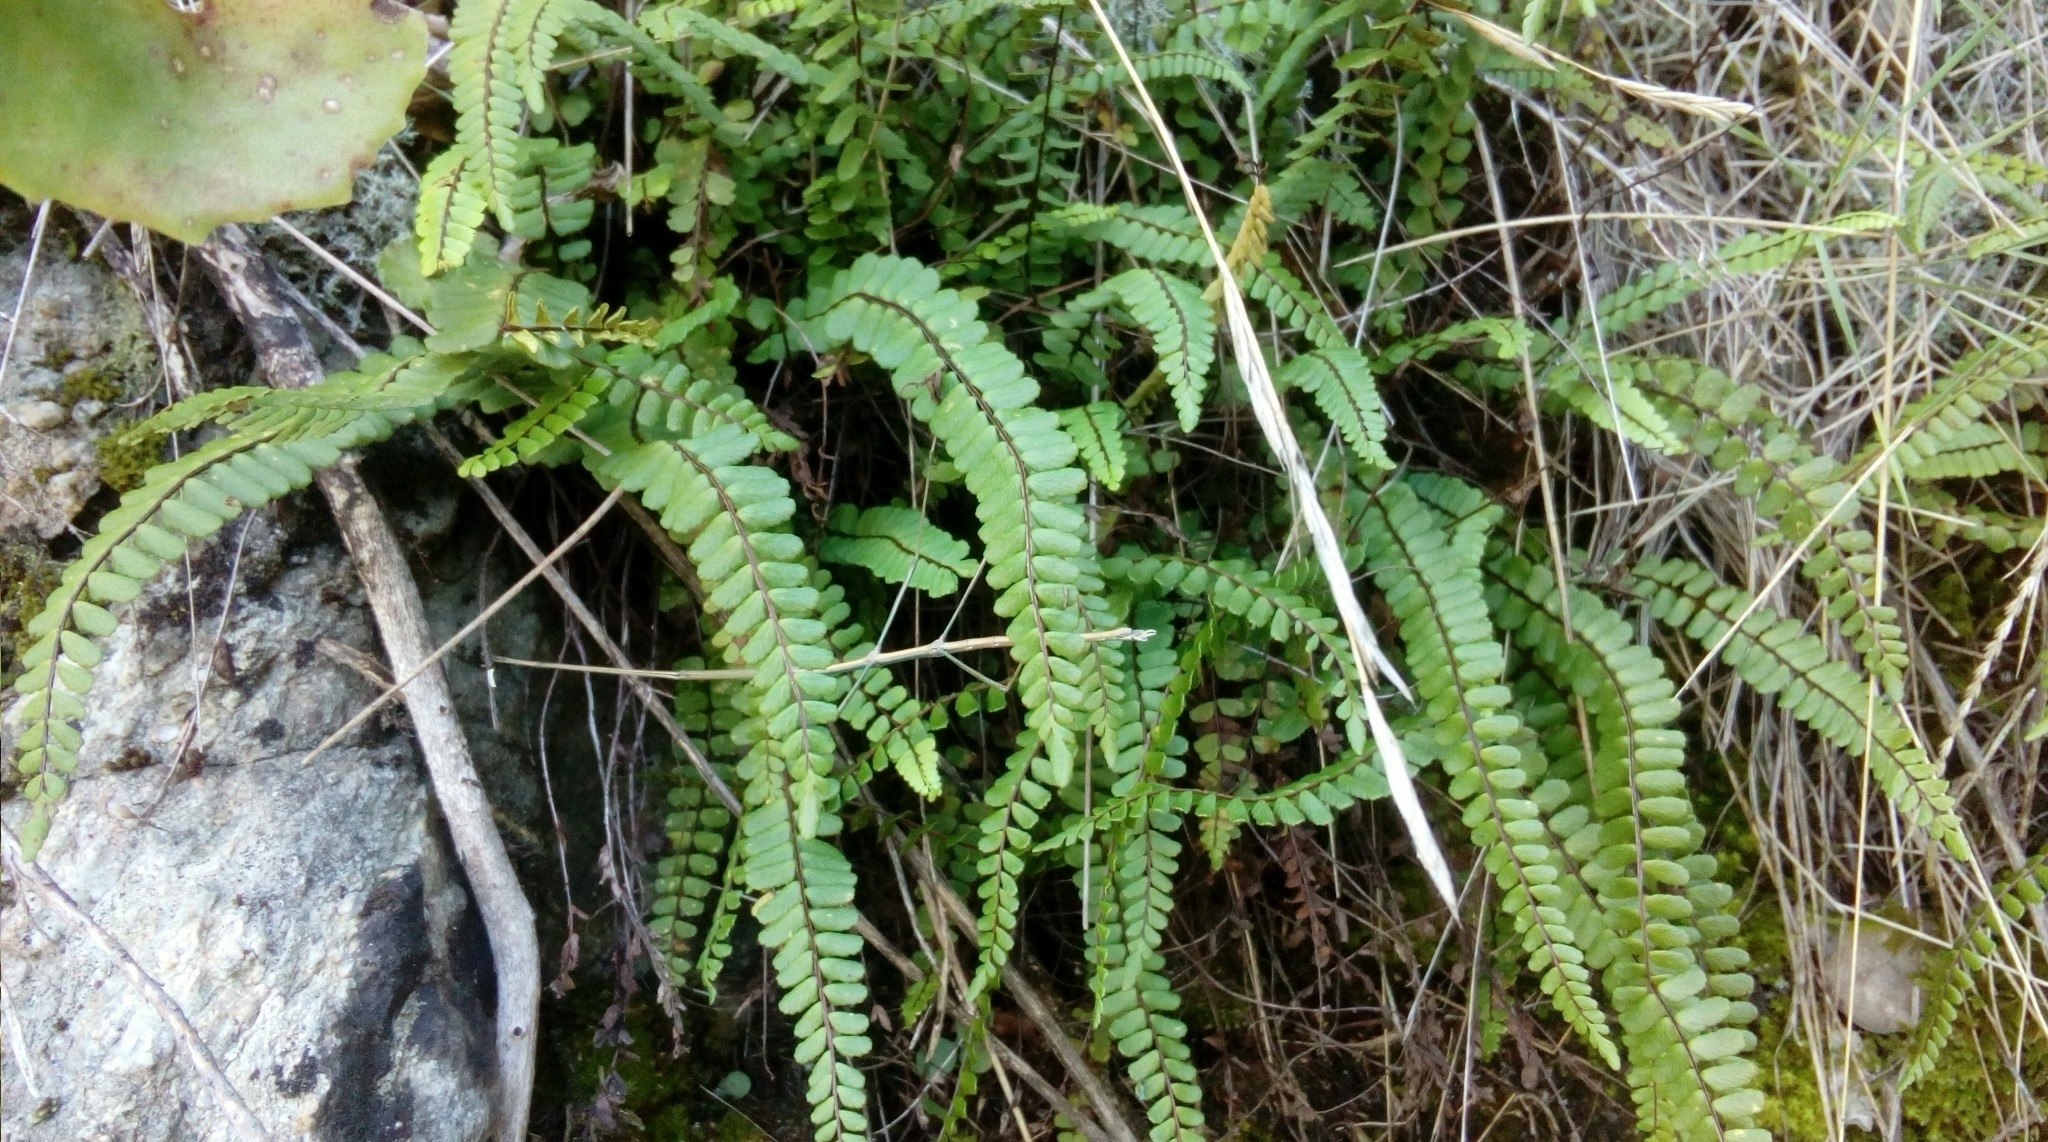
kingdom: Plantae
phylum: Tracheophyta
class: Polypodiopsida
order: Polypodiales
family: Aspleniaceae
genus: Asplenium
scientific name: Asplenium trichomanes
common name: Maidenhair spleenwort
